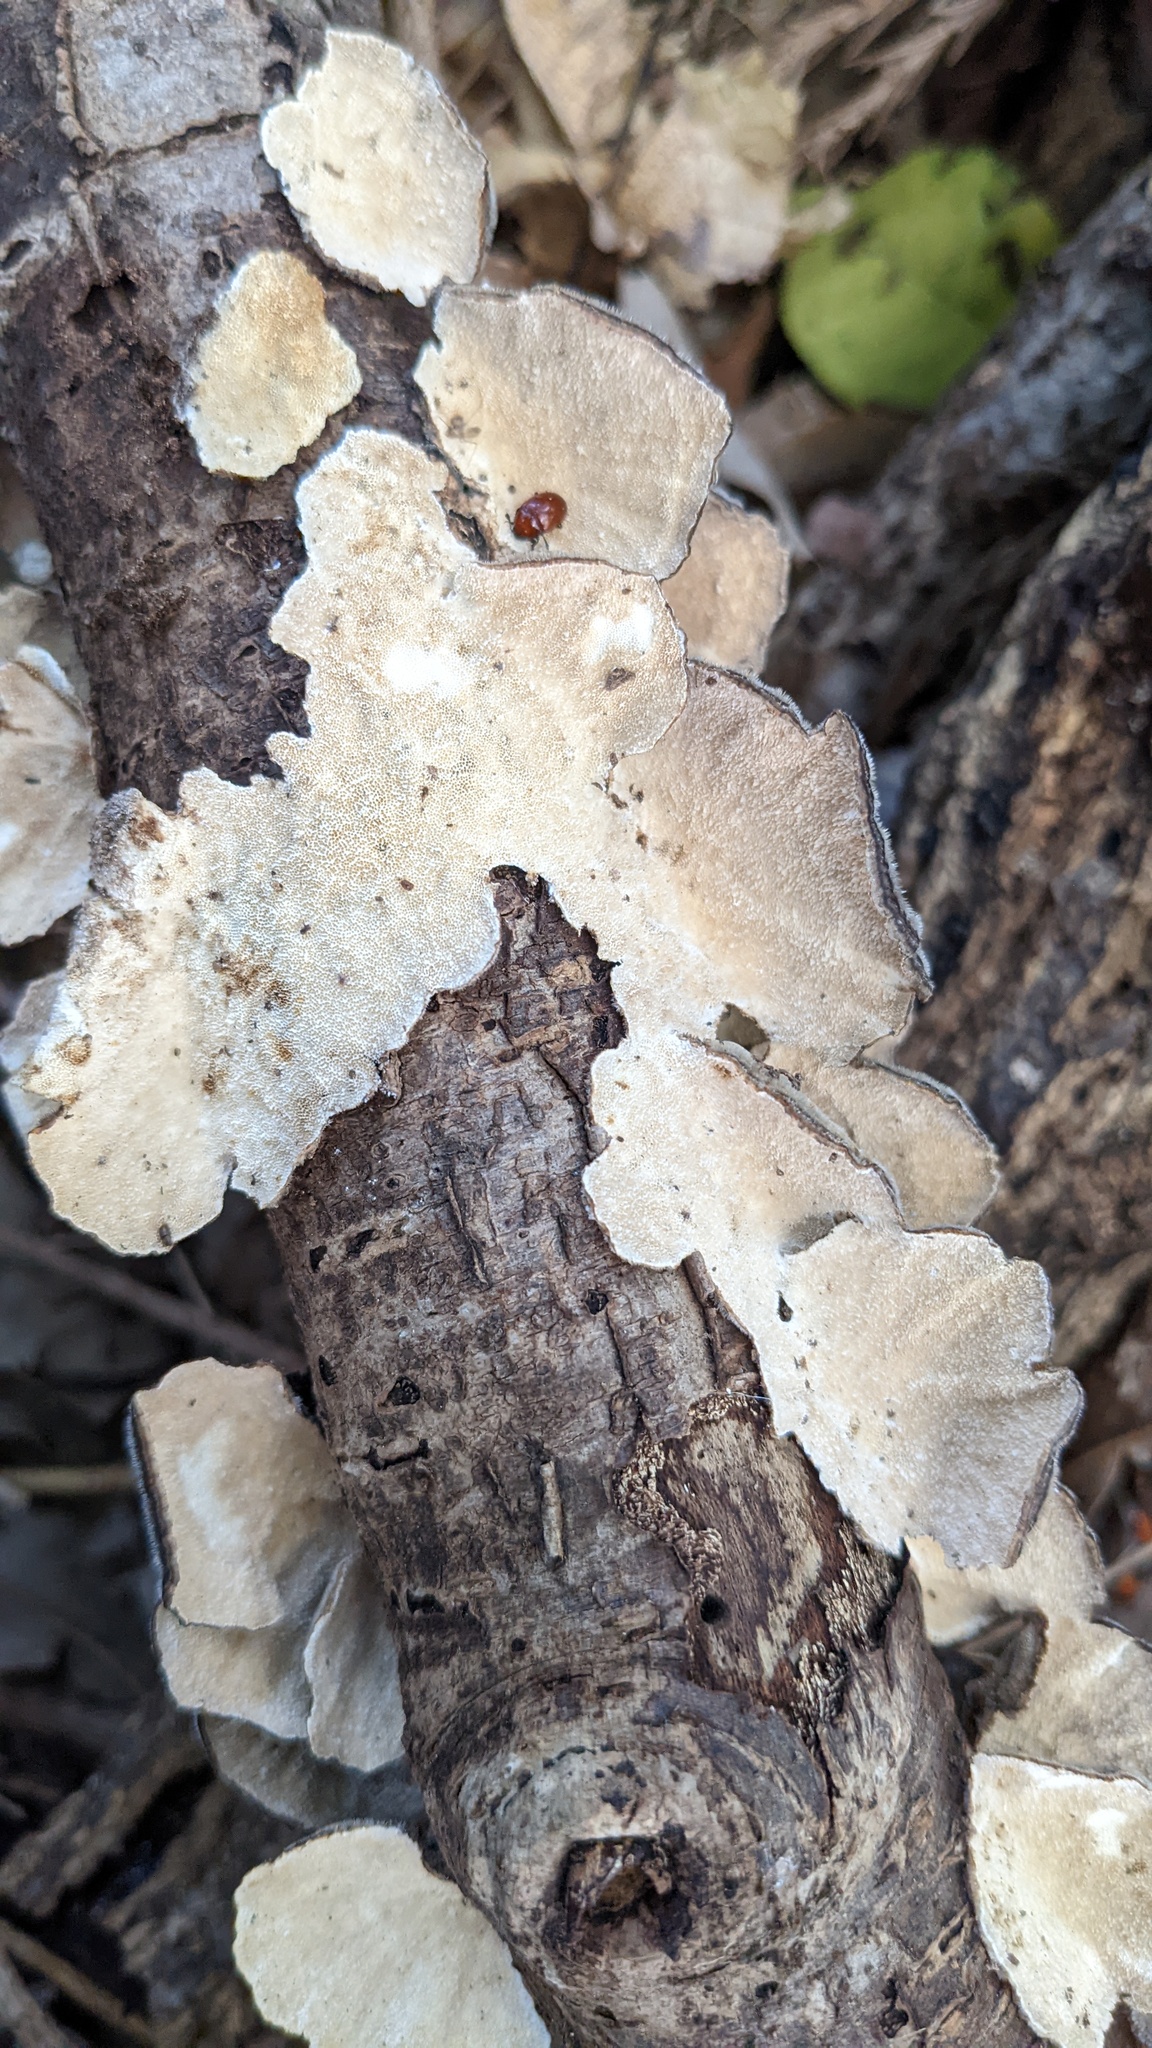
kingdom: Fungi
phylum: Basidiomycota
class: Agaricomycetes
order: Polyporales
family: Polyporaceae
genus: Trametes
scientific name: Trametes versicolor
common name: Turkeytail
